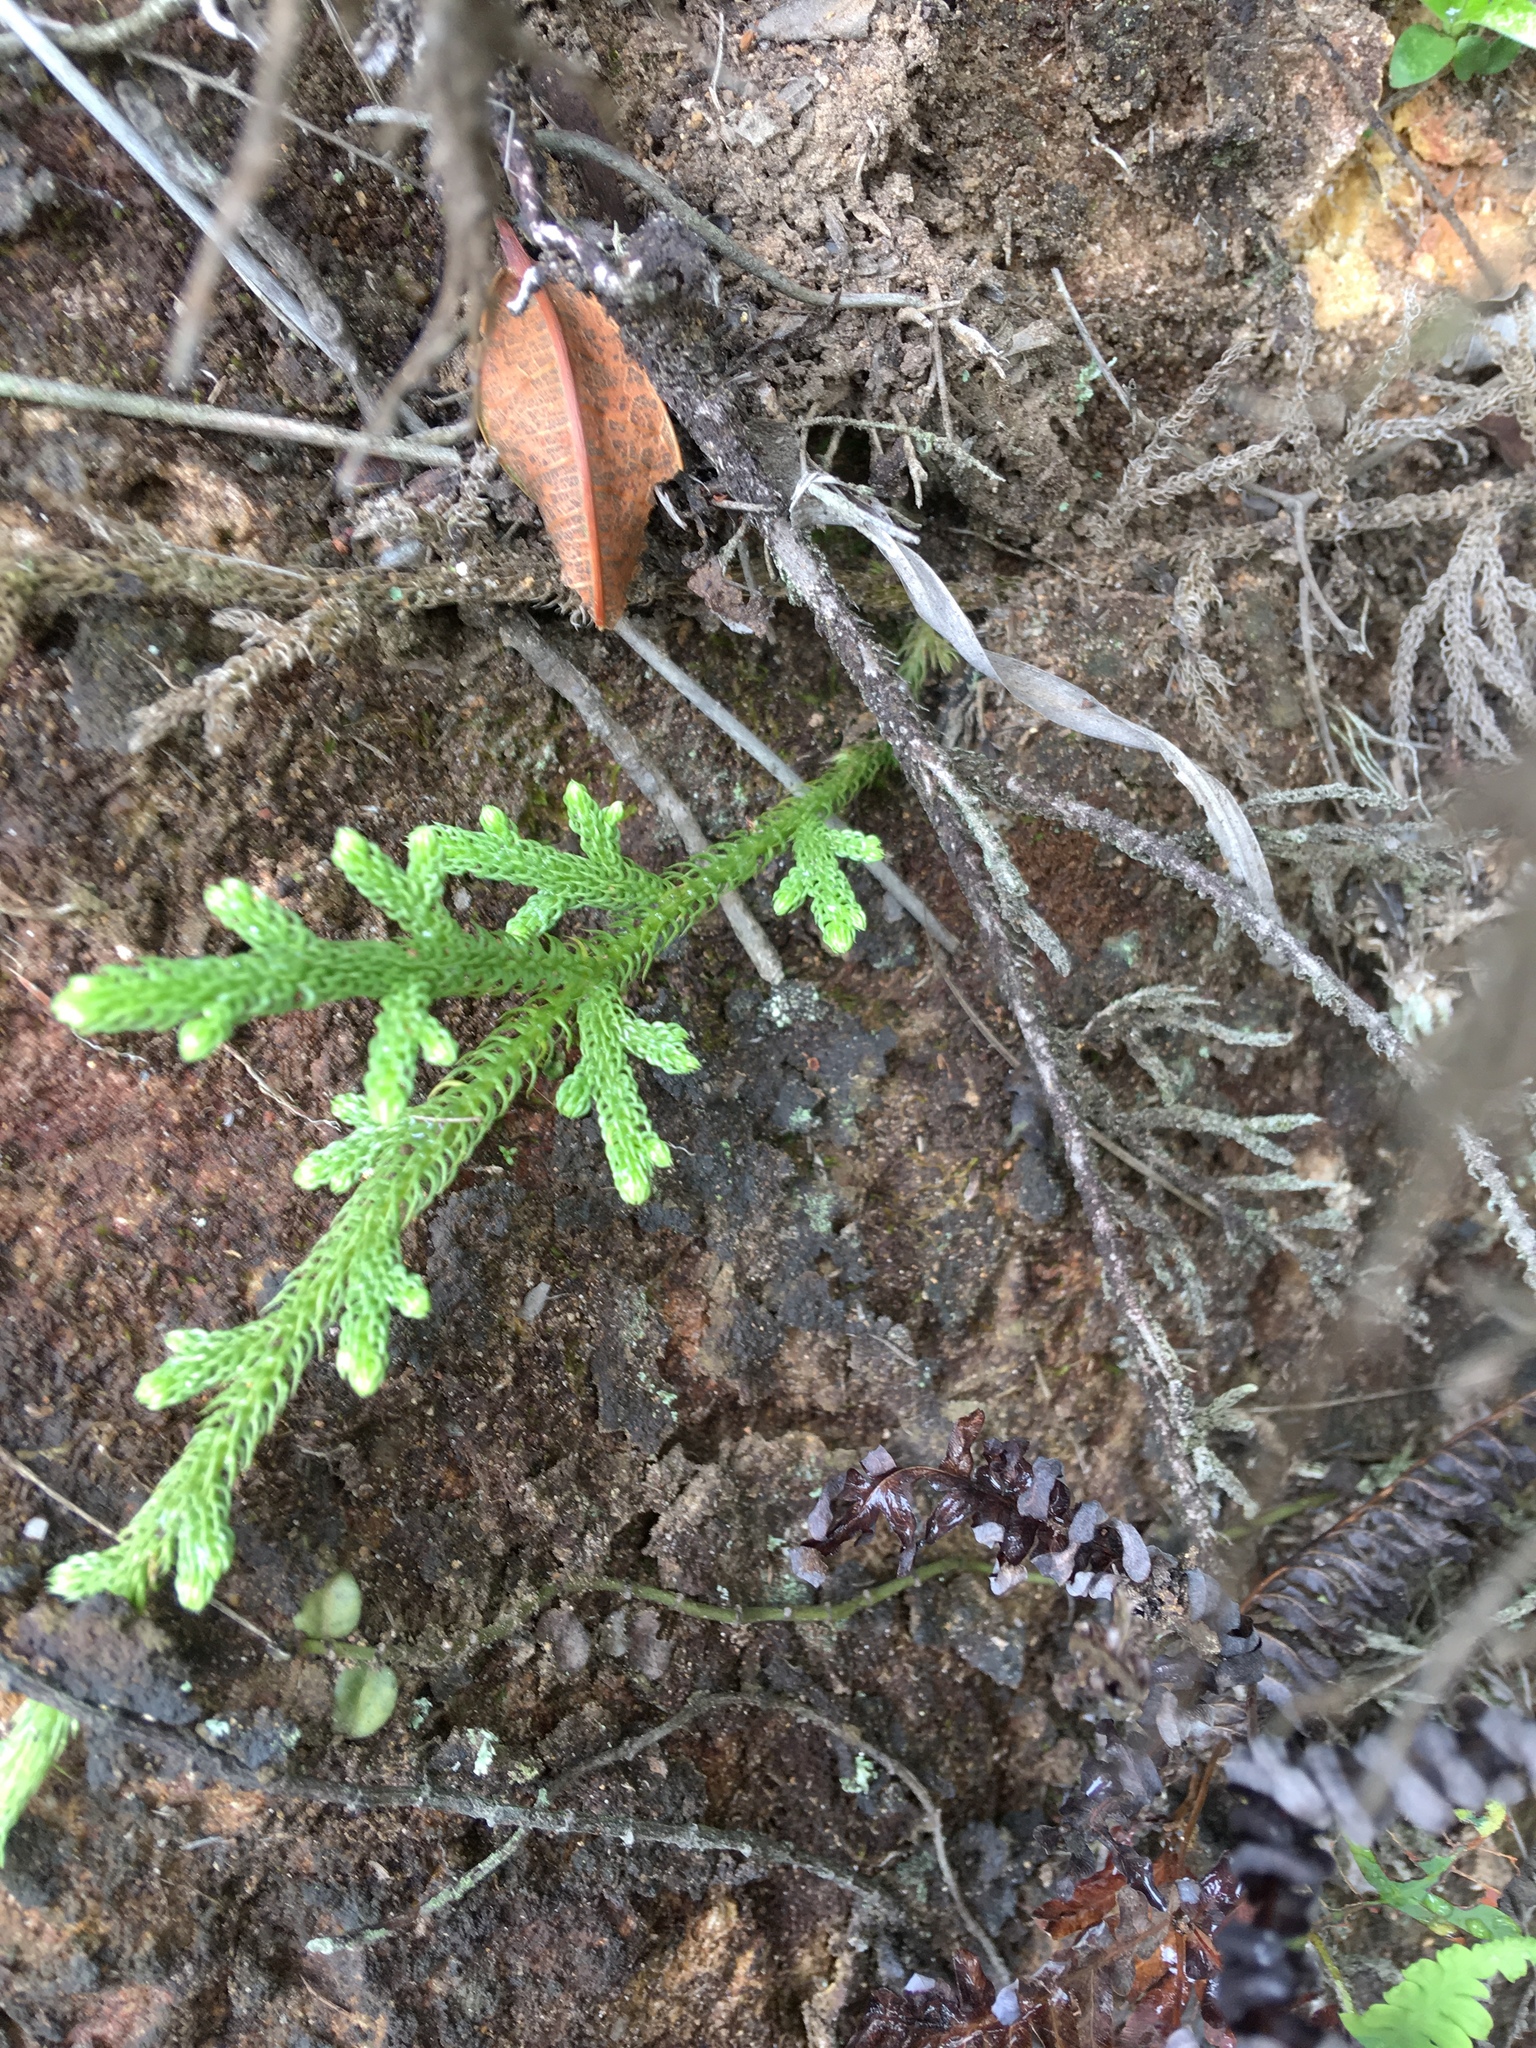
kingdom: Plantae
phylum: Tracheophyta
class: Lycopodiopsida
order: Lycopodiales
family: Lycopodiaceae
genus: Palhinhaea
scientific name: Palhinhaea cernua
